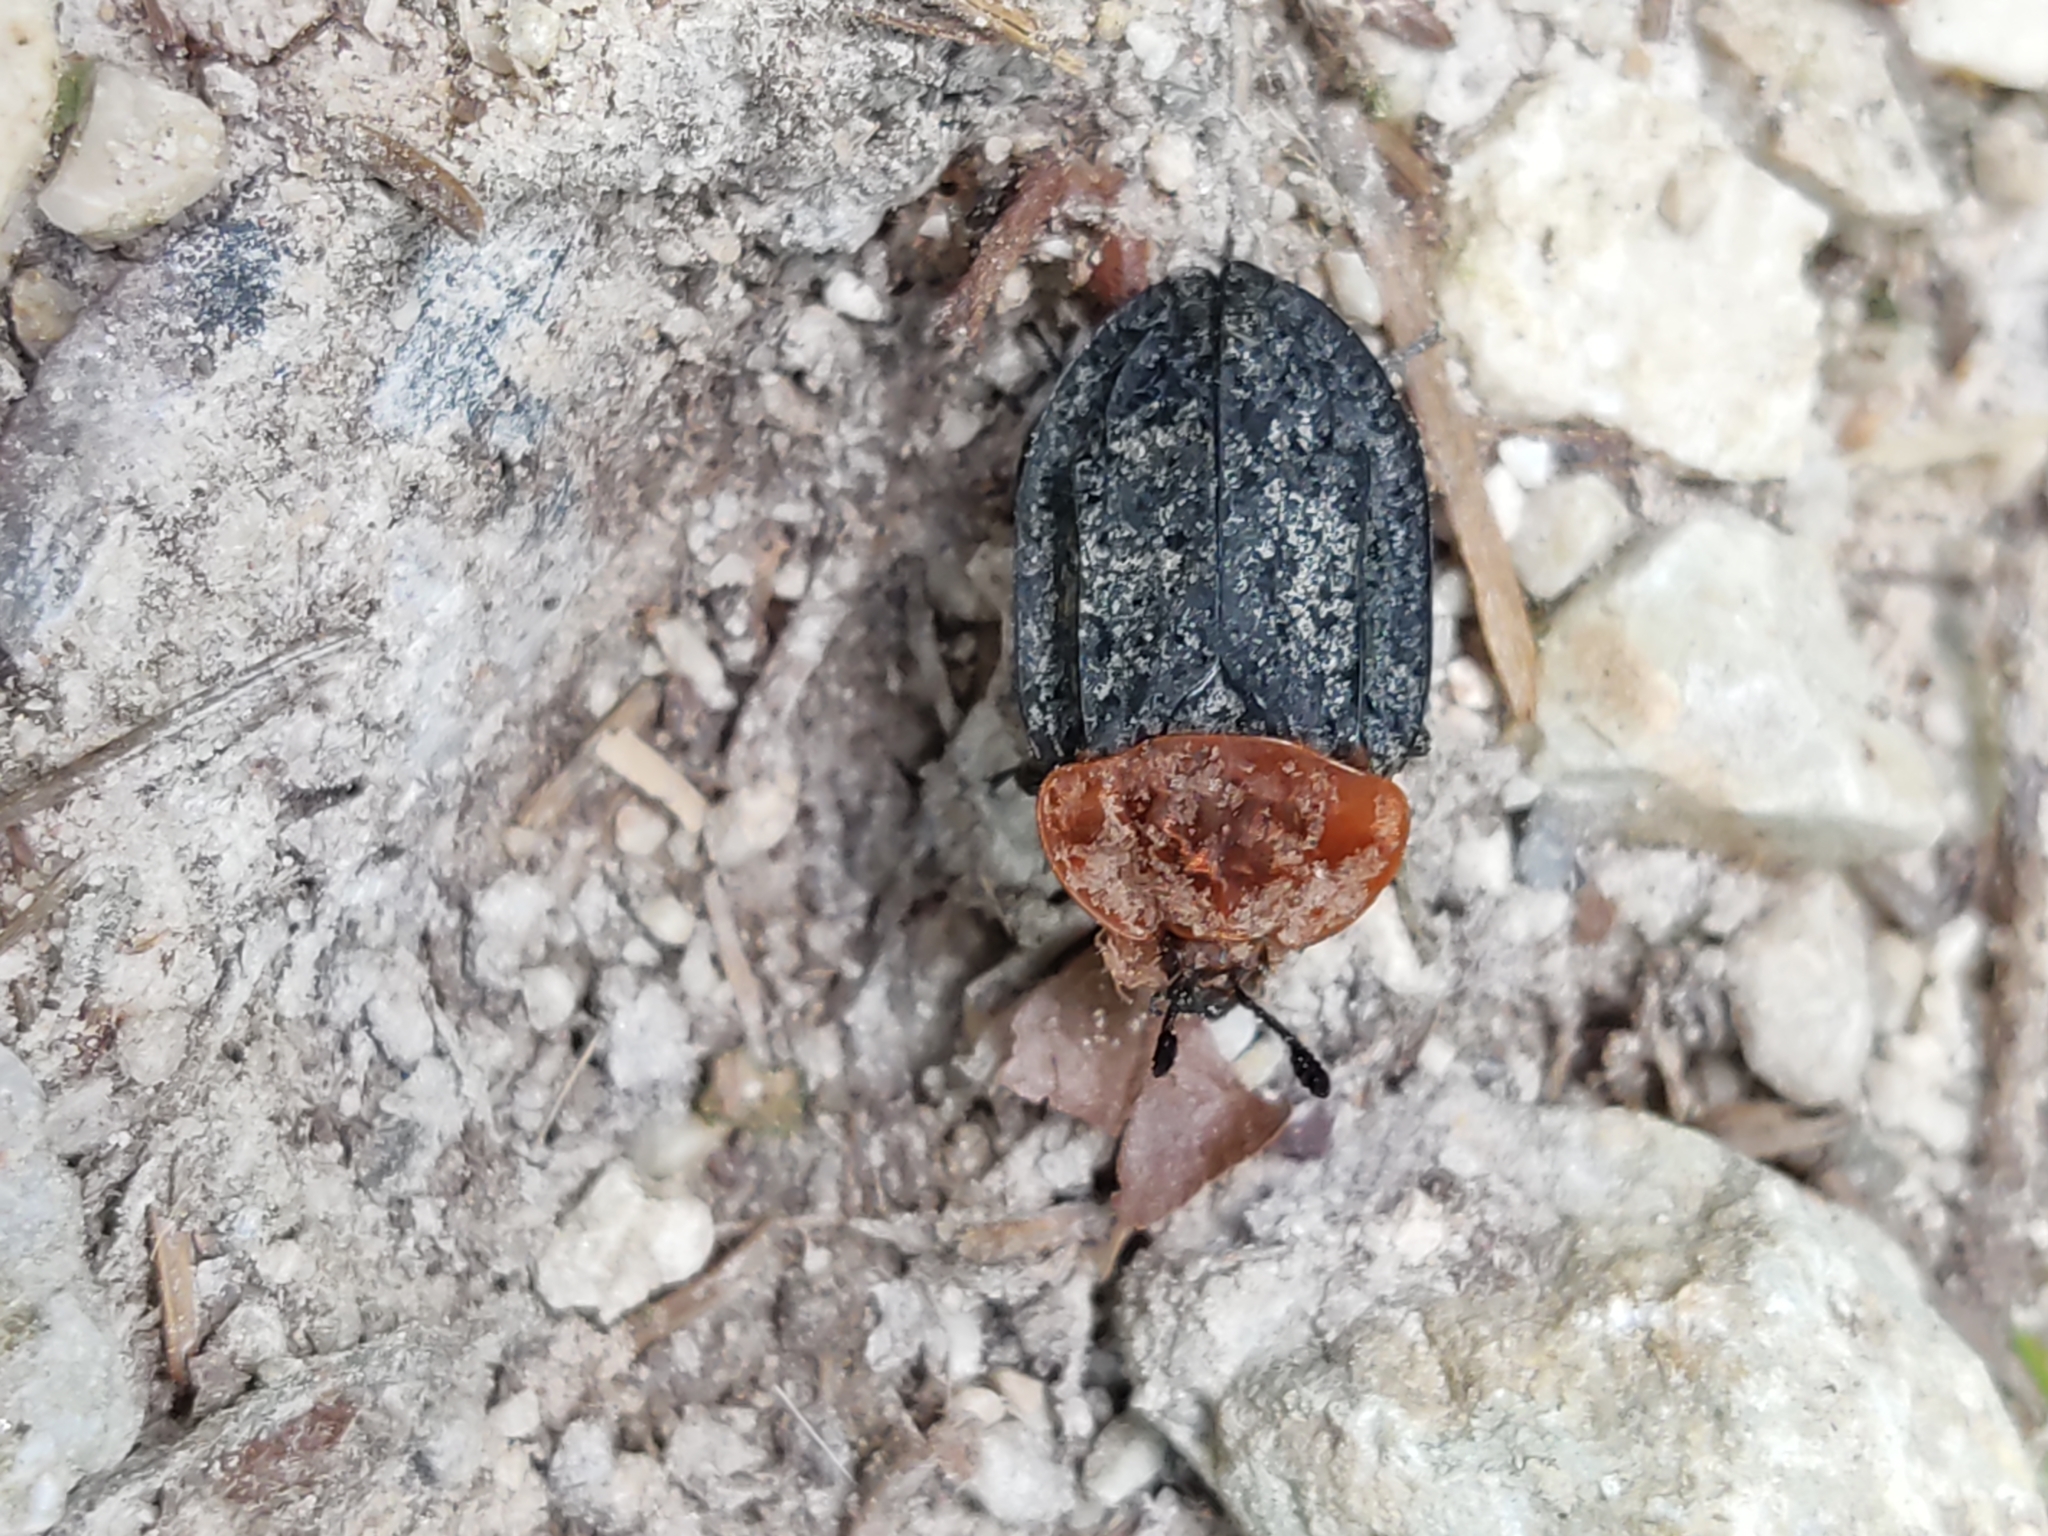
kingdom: Animalia
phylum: Arthropoda
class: Insecta
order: Coleoptera
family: Staphylinidae
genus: Oiceoptoma
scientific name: Oiceoptoma thoracicum
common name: Red-breasted carrion beetle
